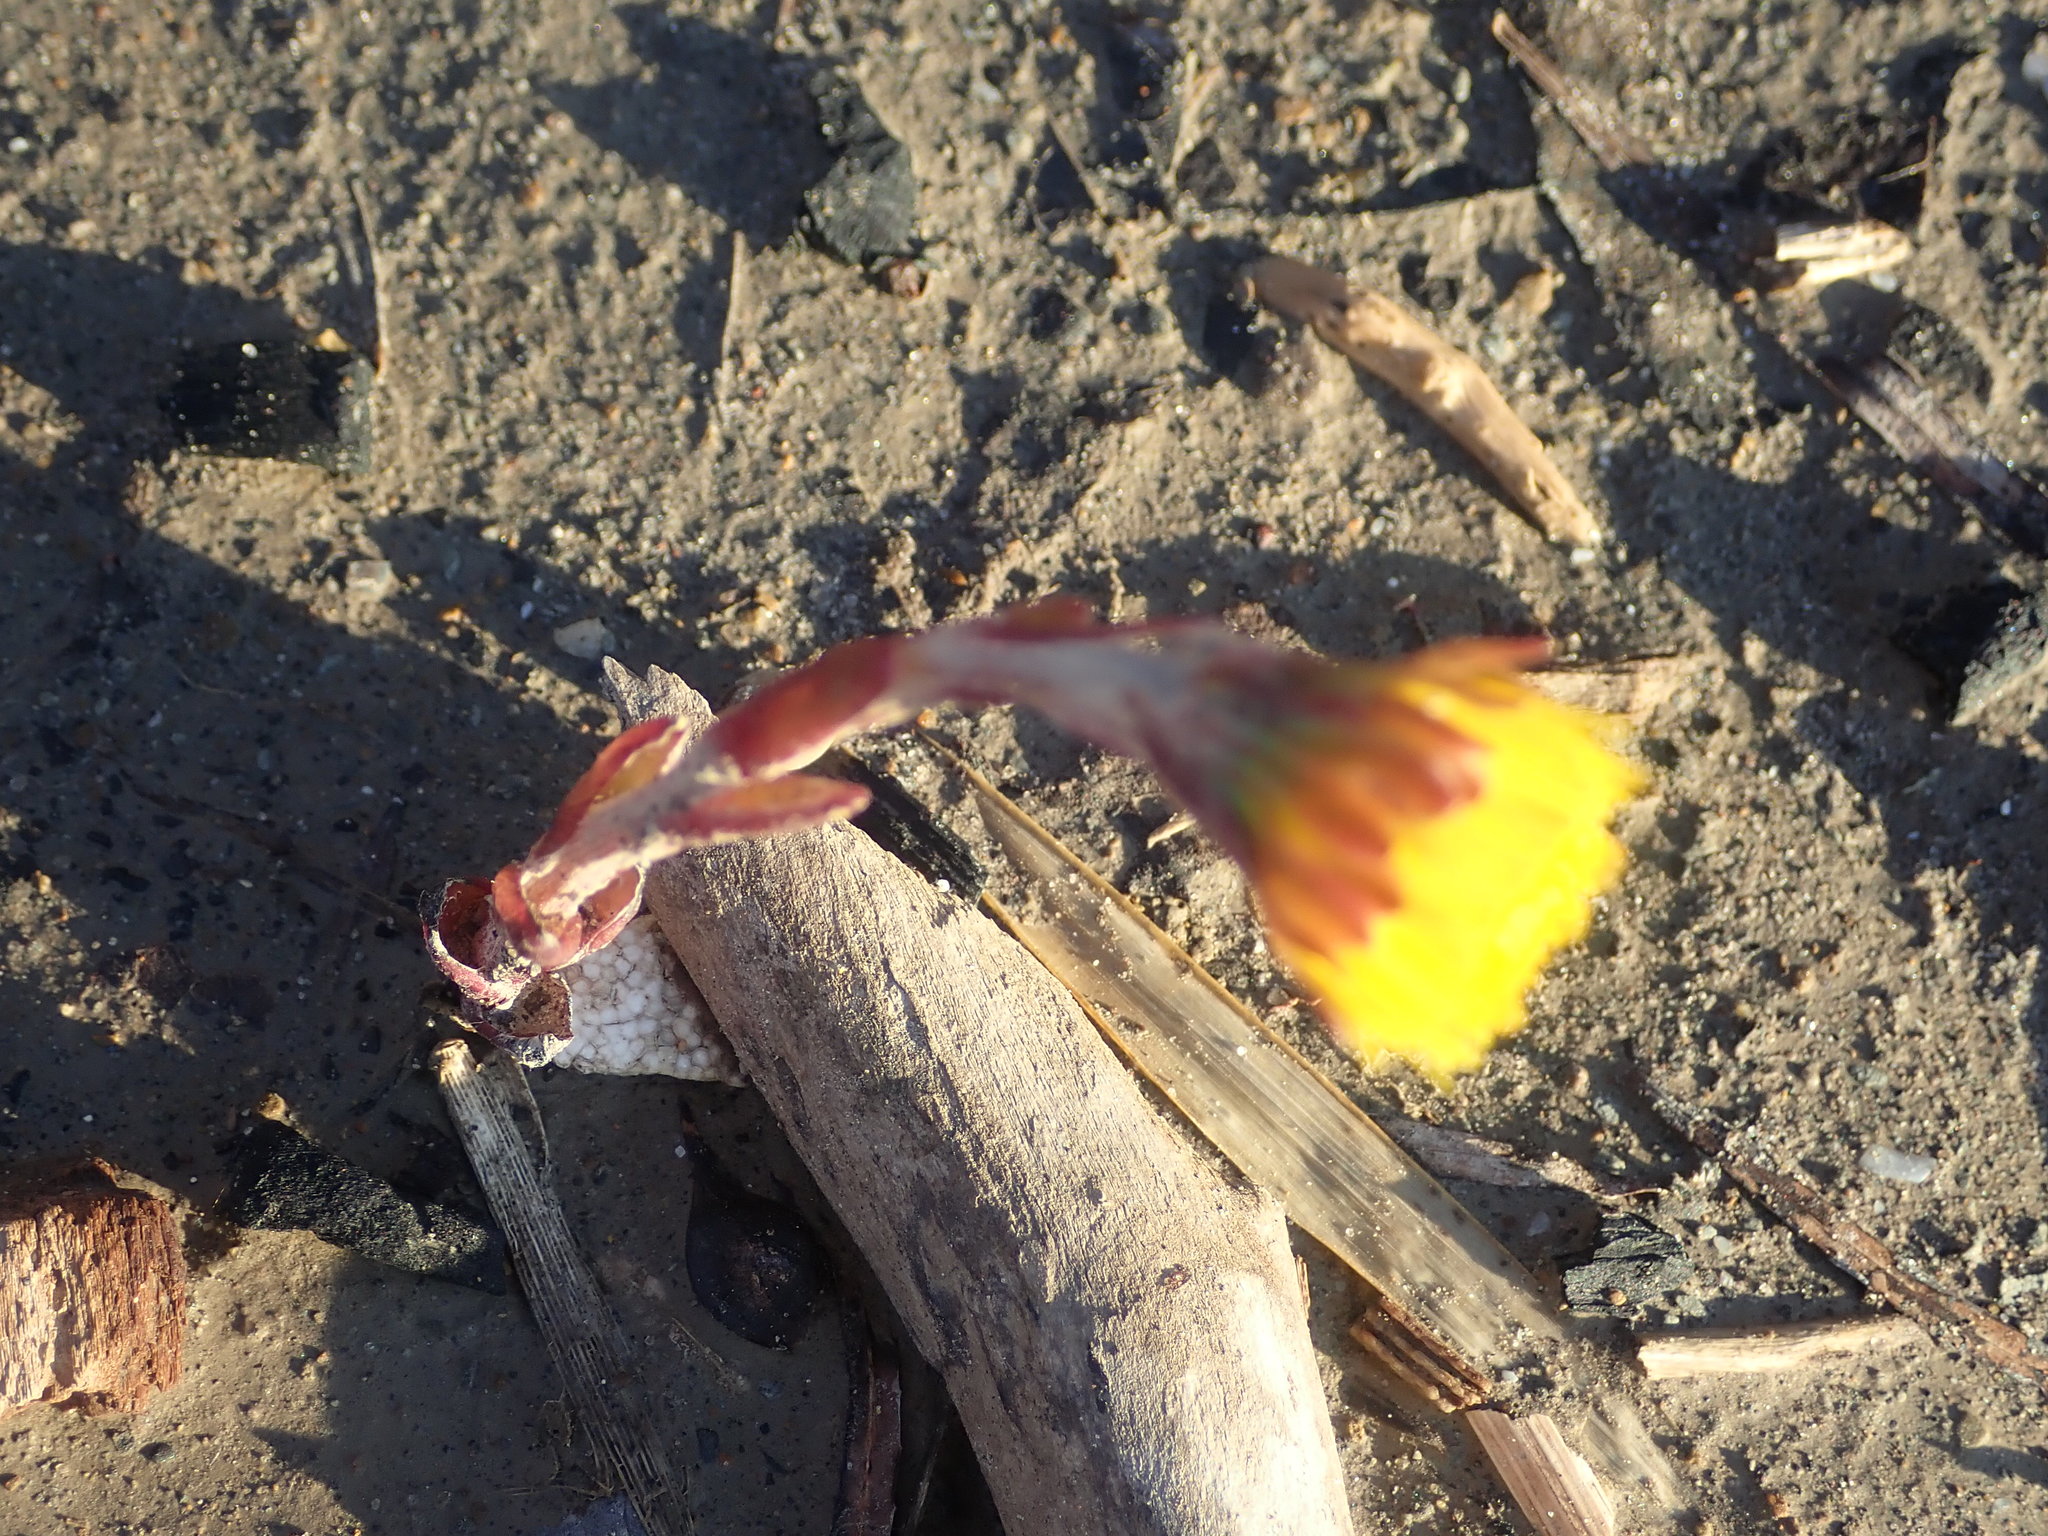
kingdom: Plantae
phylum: Tracheophyta
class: Magnoliopsida
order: Asterales
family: Asteraceae
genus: Tussilago
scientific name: Tussilago farfara
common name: Coltsfoot
